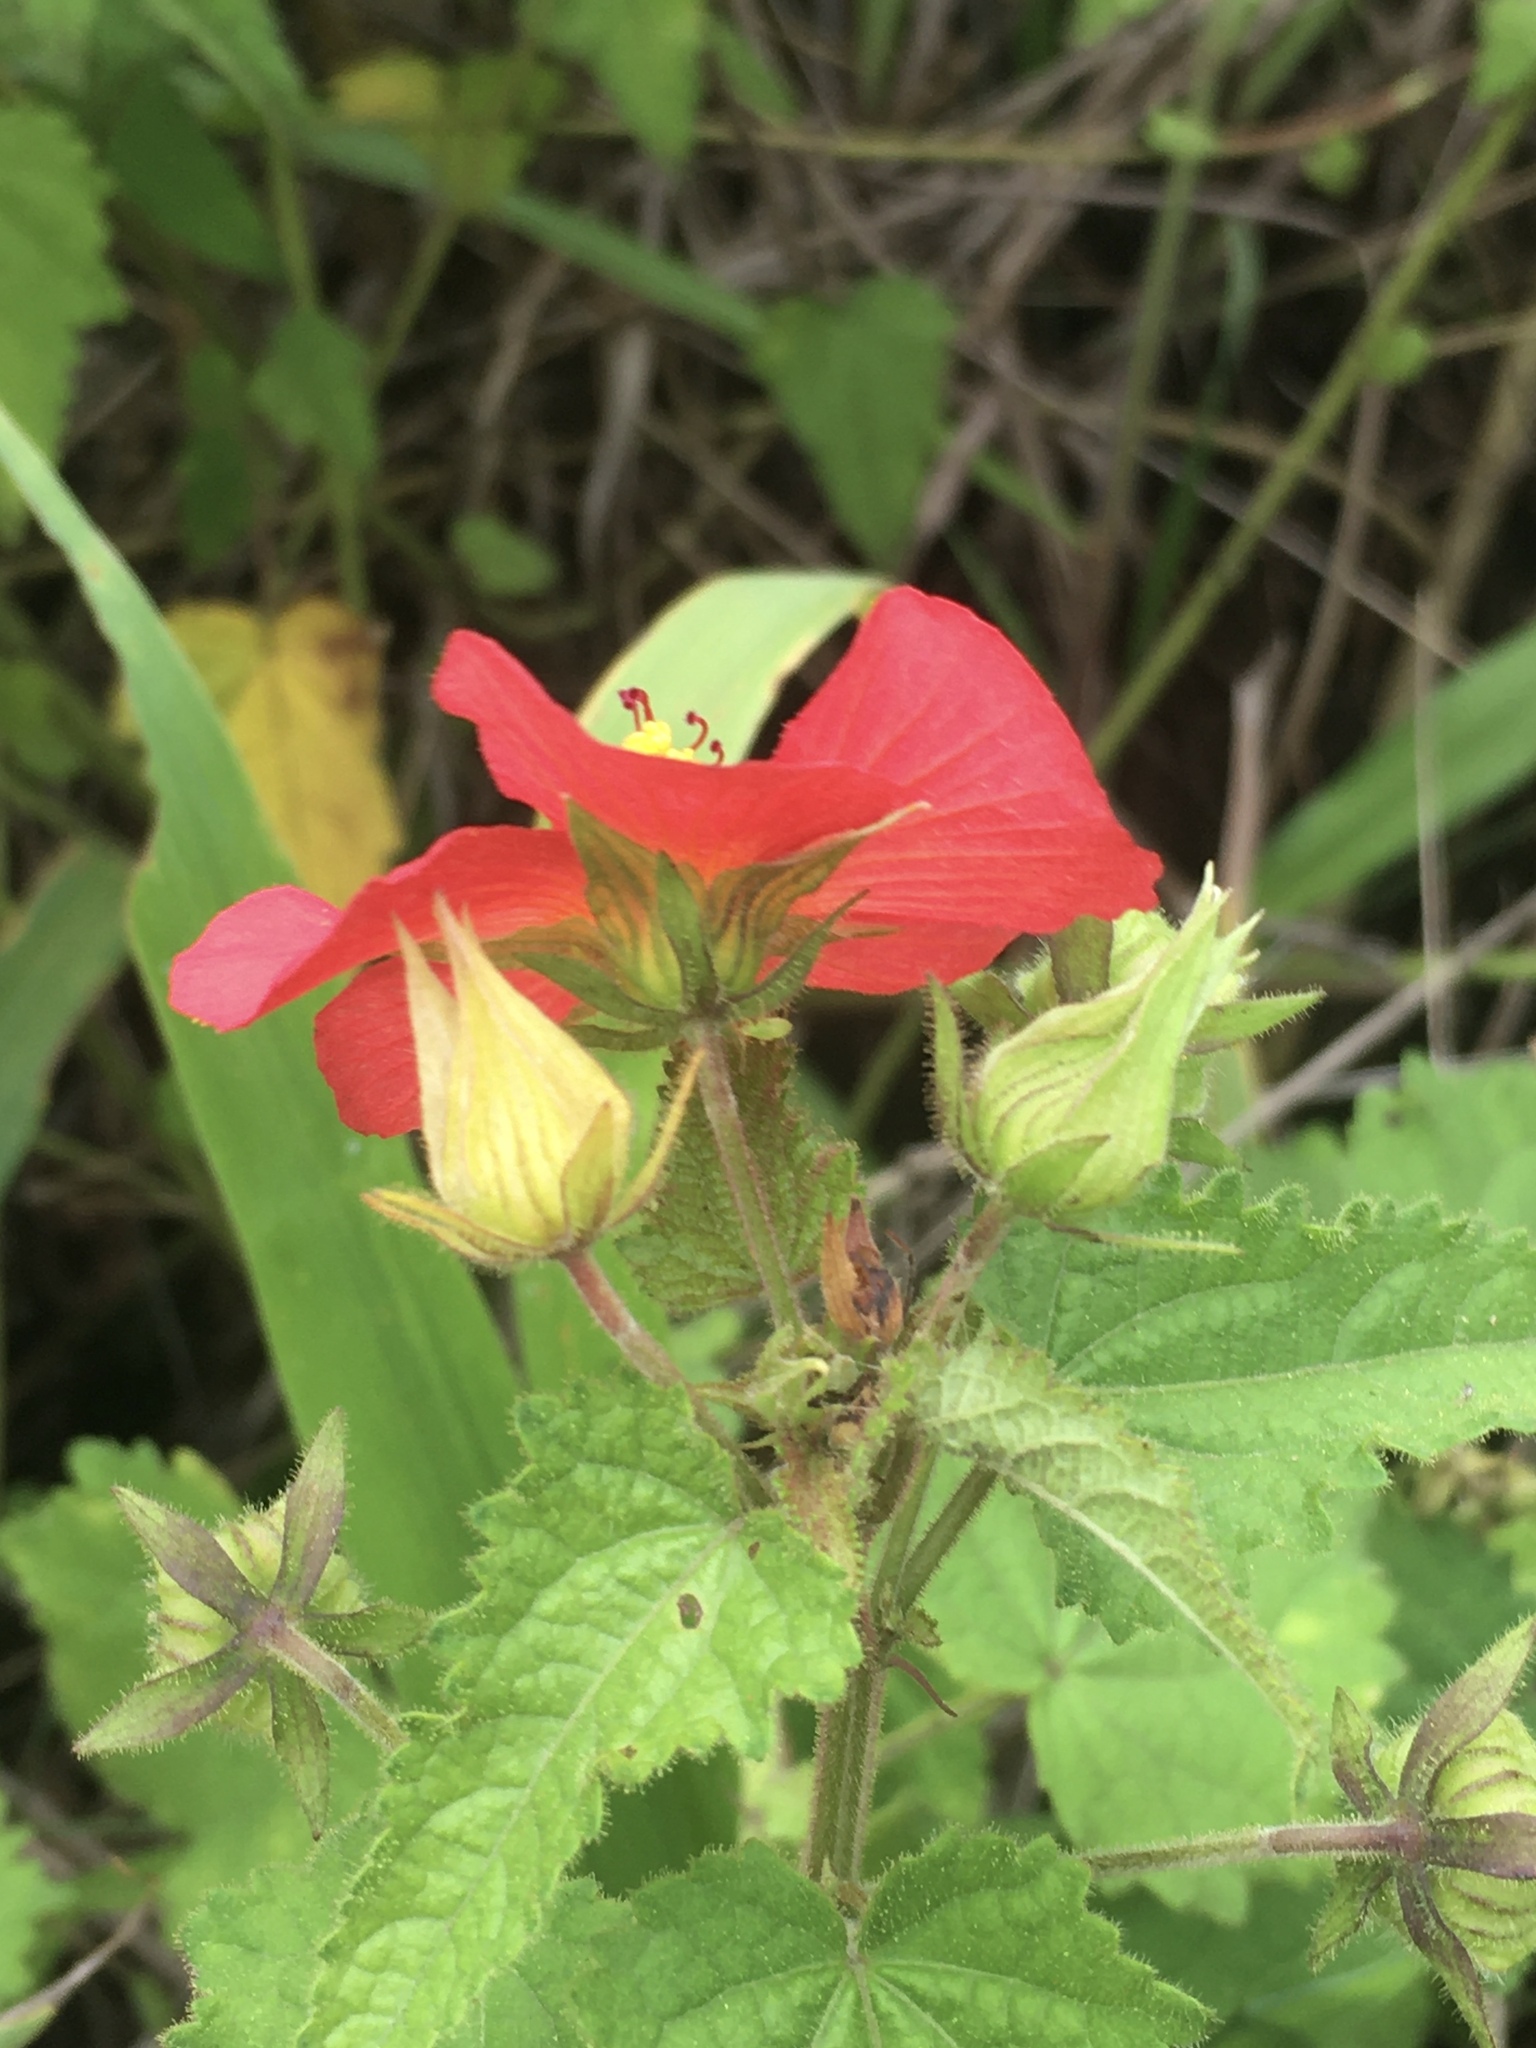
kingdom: Plantae
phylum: Tracheophyta
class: Magnoliopsida
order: Malvales
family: Malvaceae
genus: Pavonia
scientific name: Pavonia missionum
